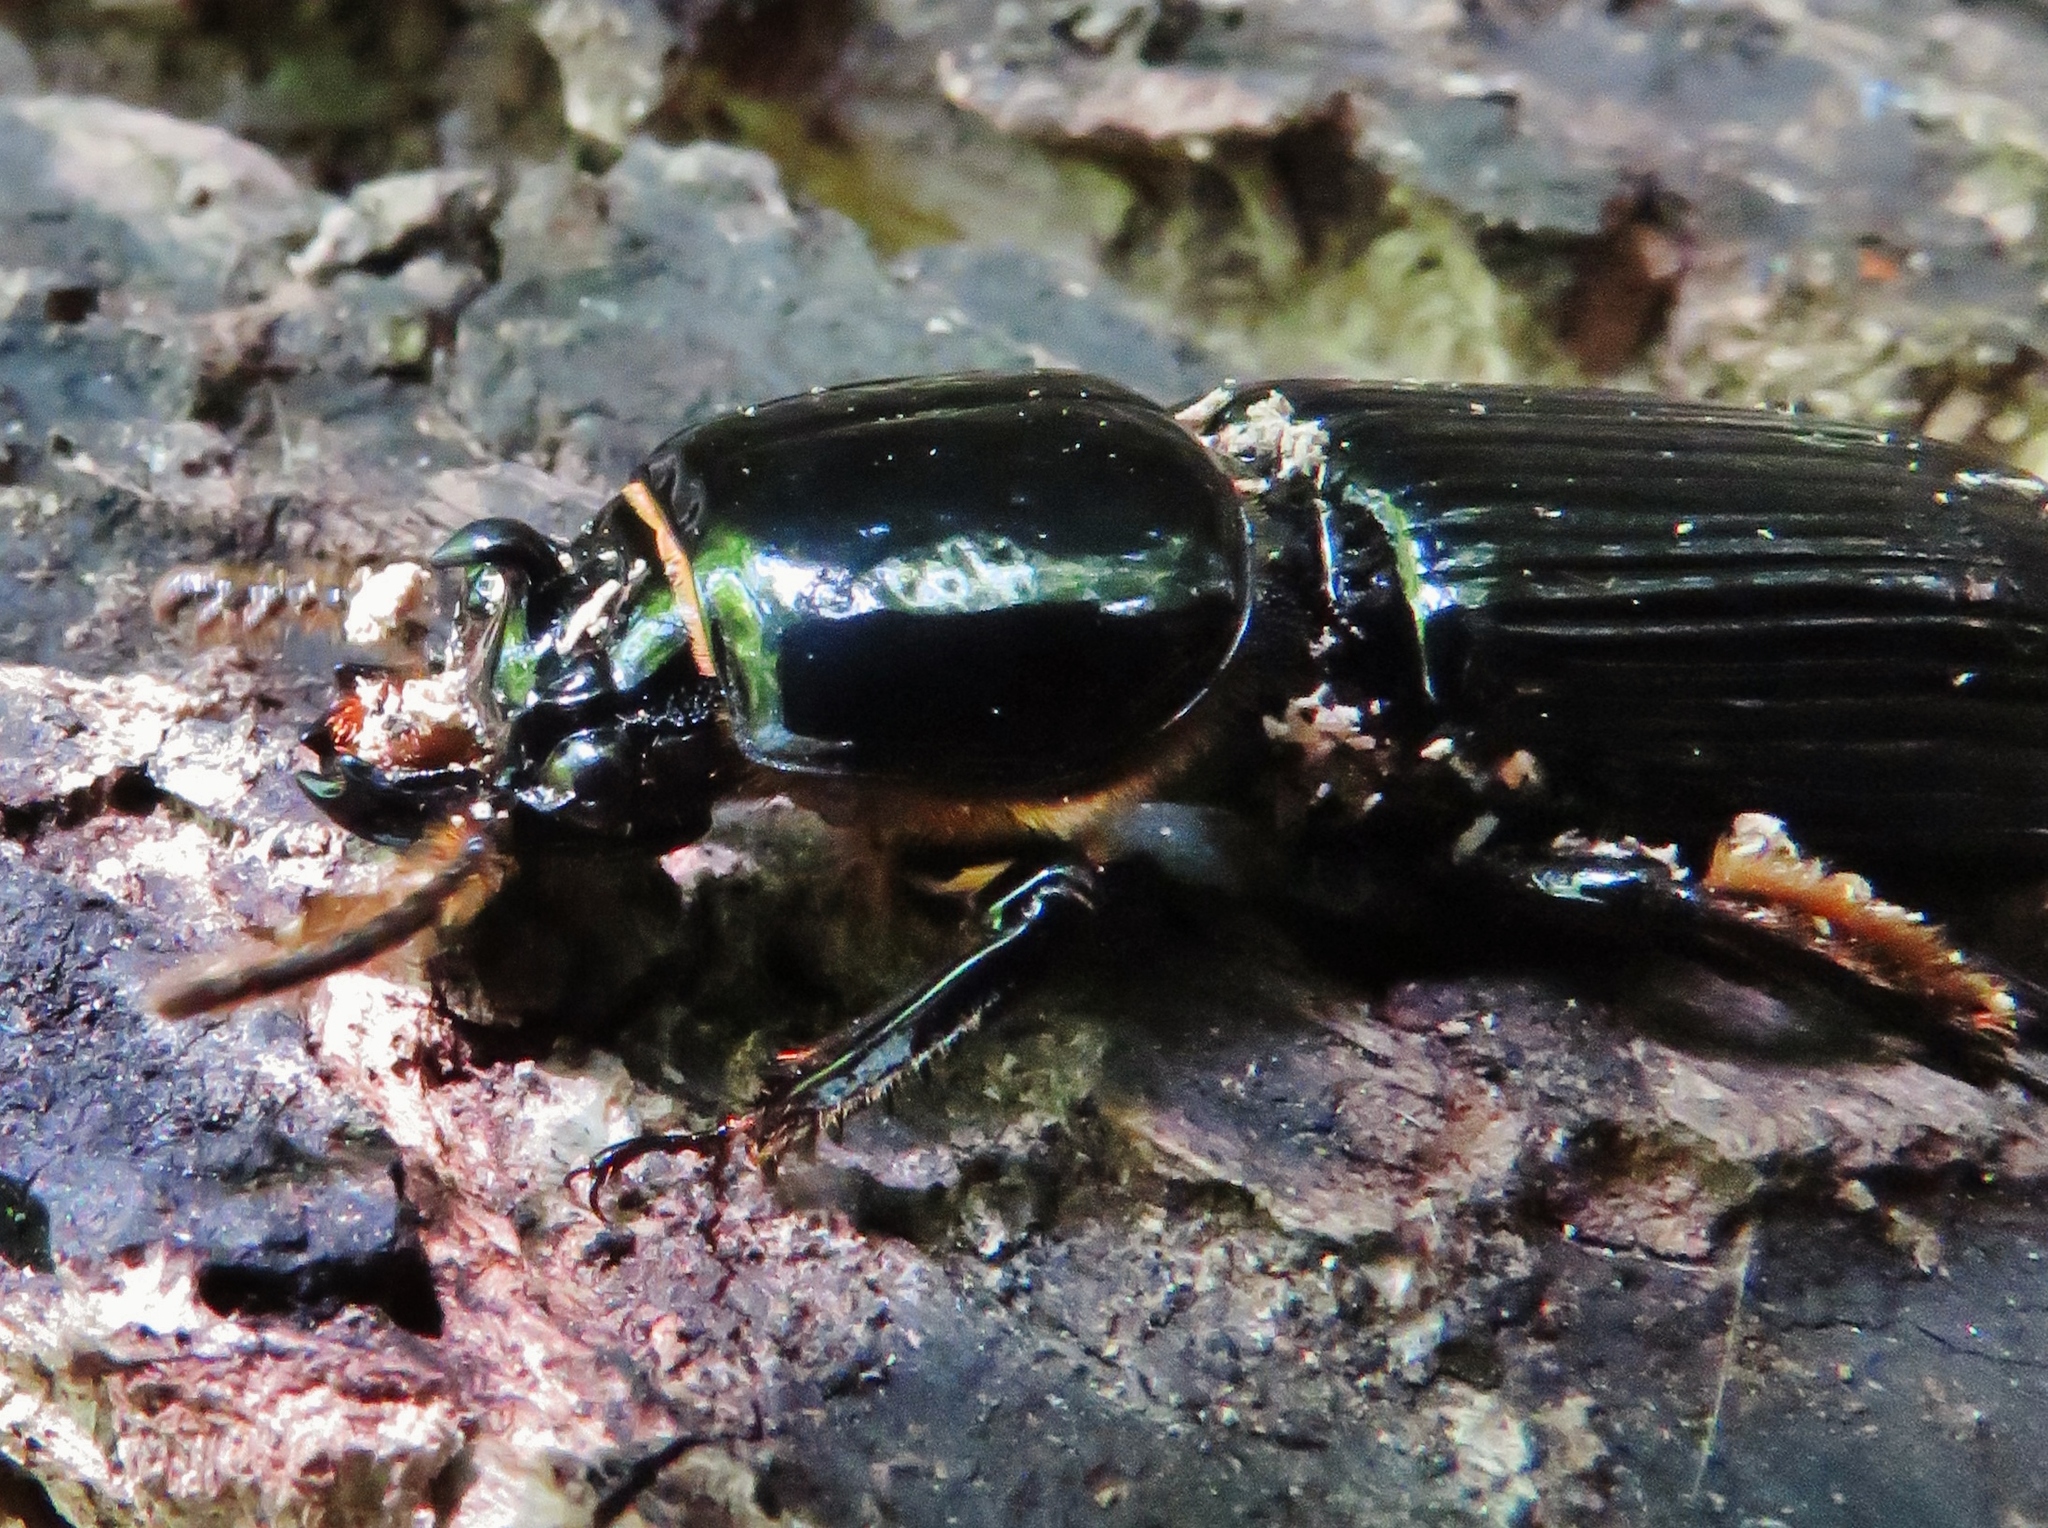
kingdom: Animalia
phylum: Arthropoda
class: Insecta
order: Coleoptera
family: Passalidae
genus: Odontotaenius
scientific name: Odontotaenius disjunctus
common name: Patent leather beetle
